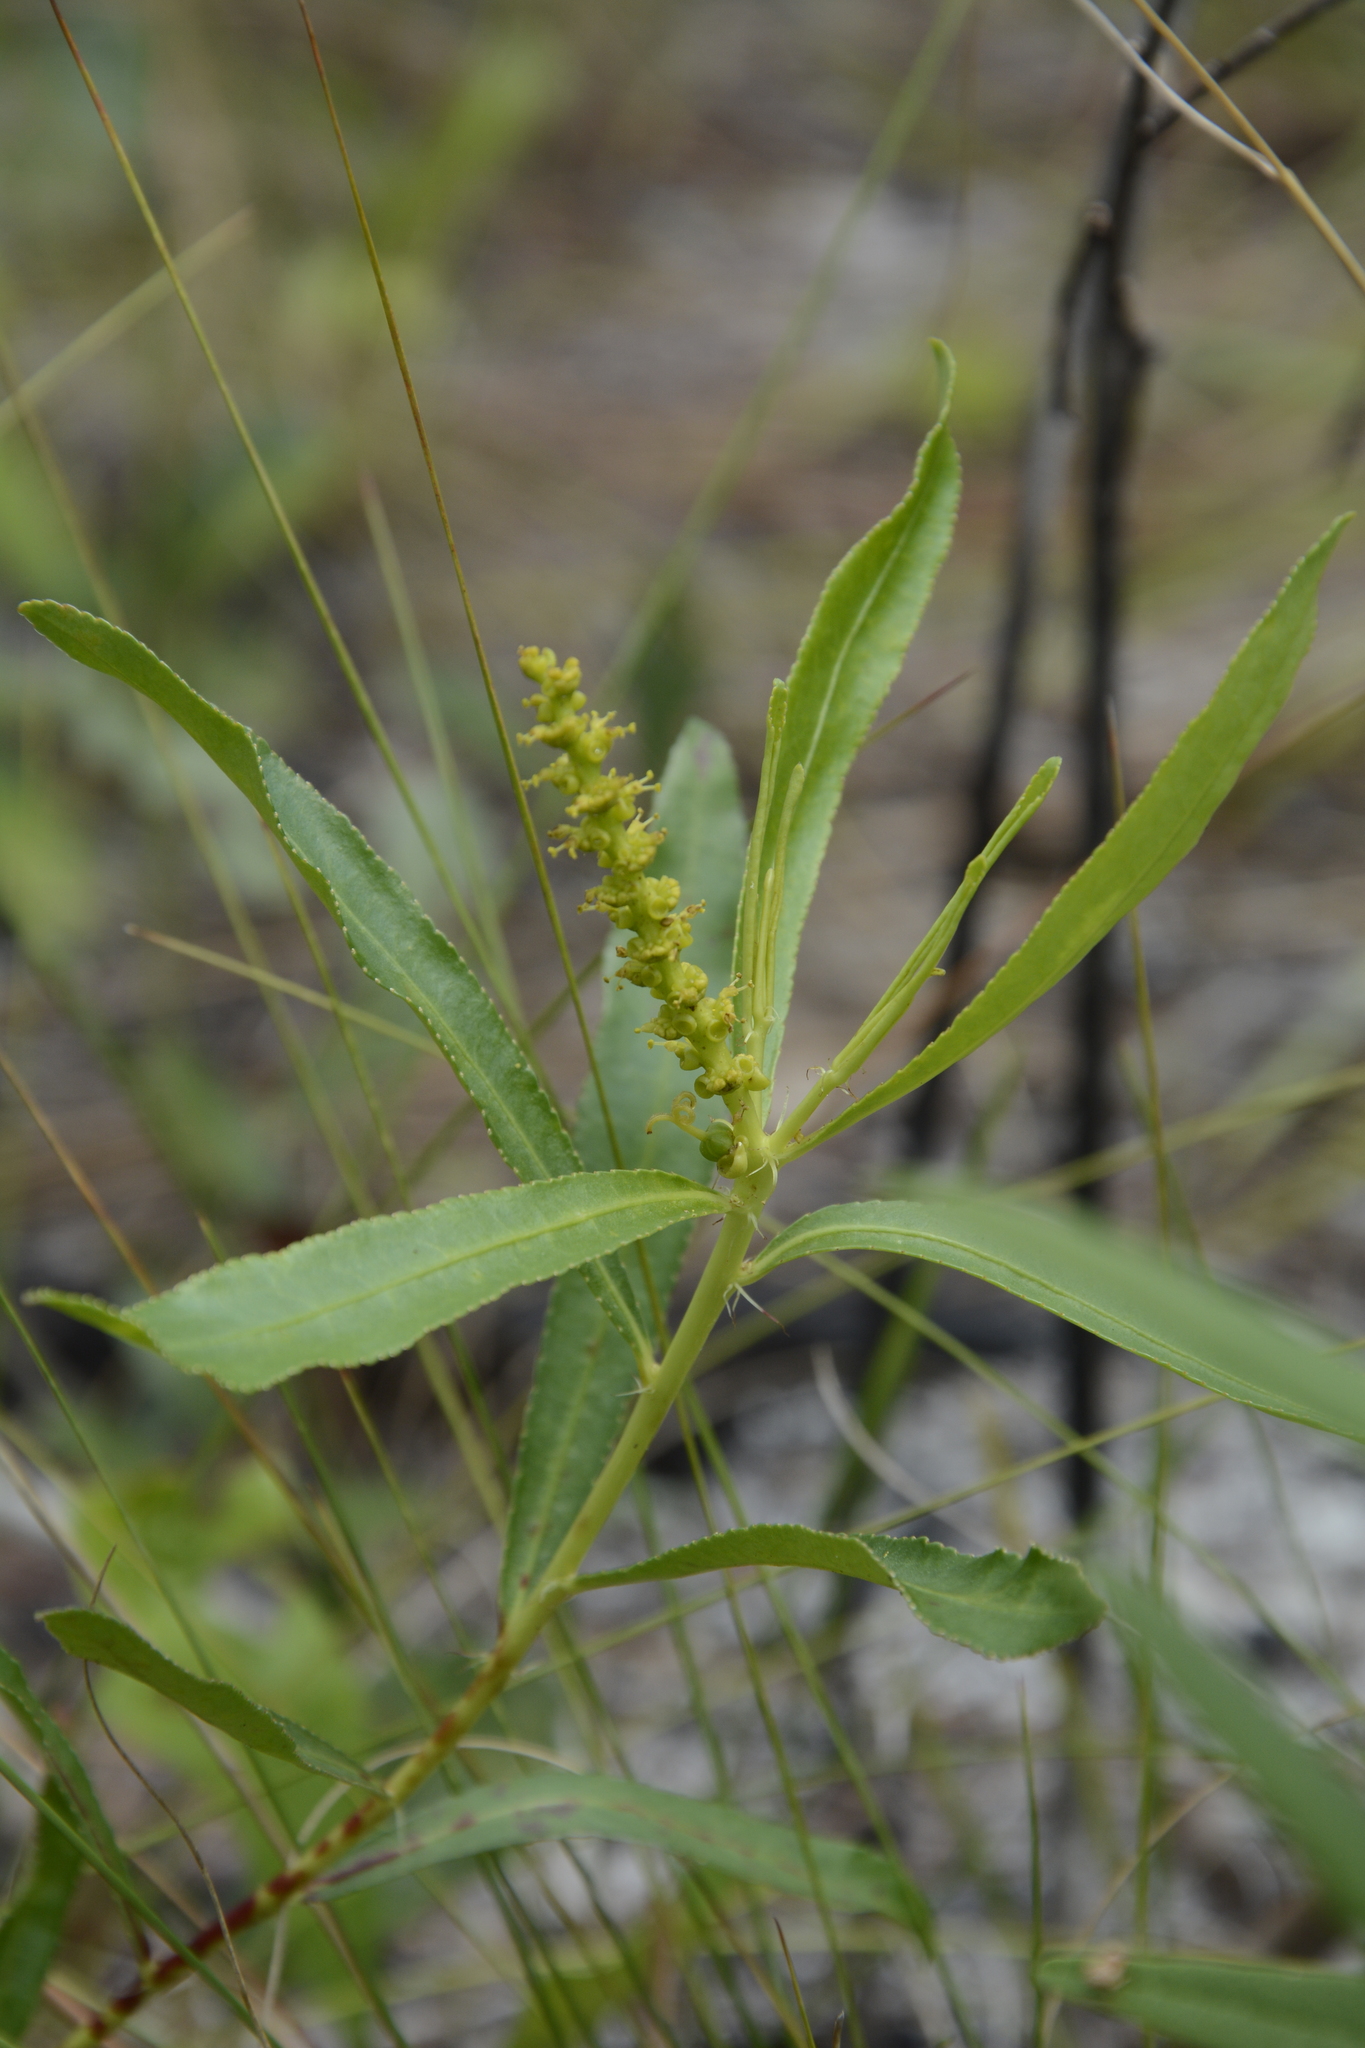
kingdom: Plantae
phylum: Tracheophyta
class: Magnoliopsida
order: Malpighiales
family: Euphorbiaceae
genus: Stillingia
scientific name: Stillingia sylvatica
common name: Queen's-delight
